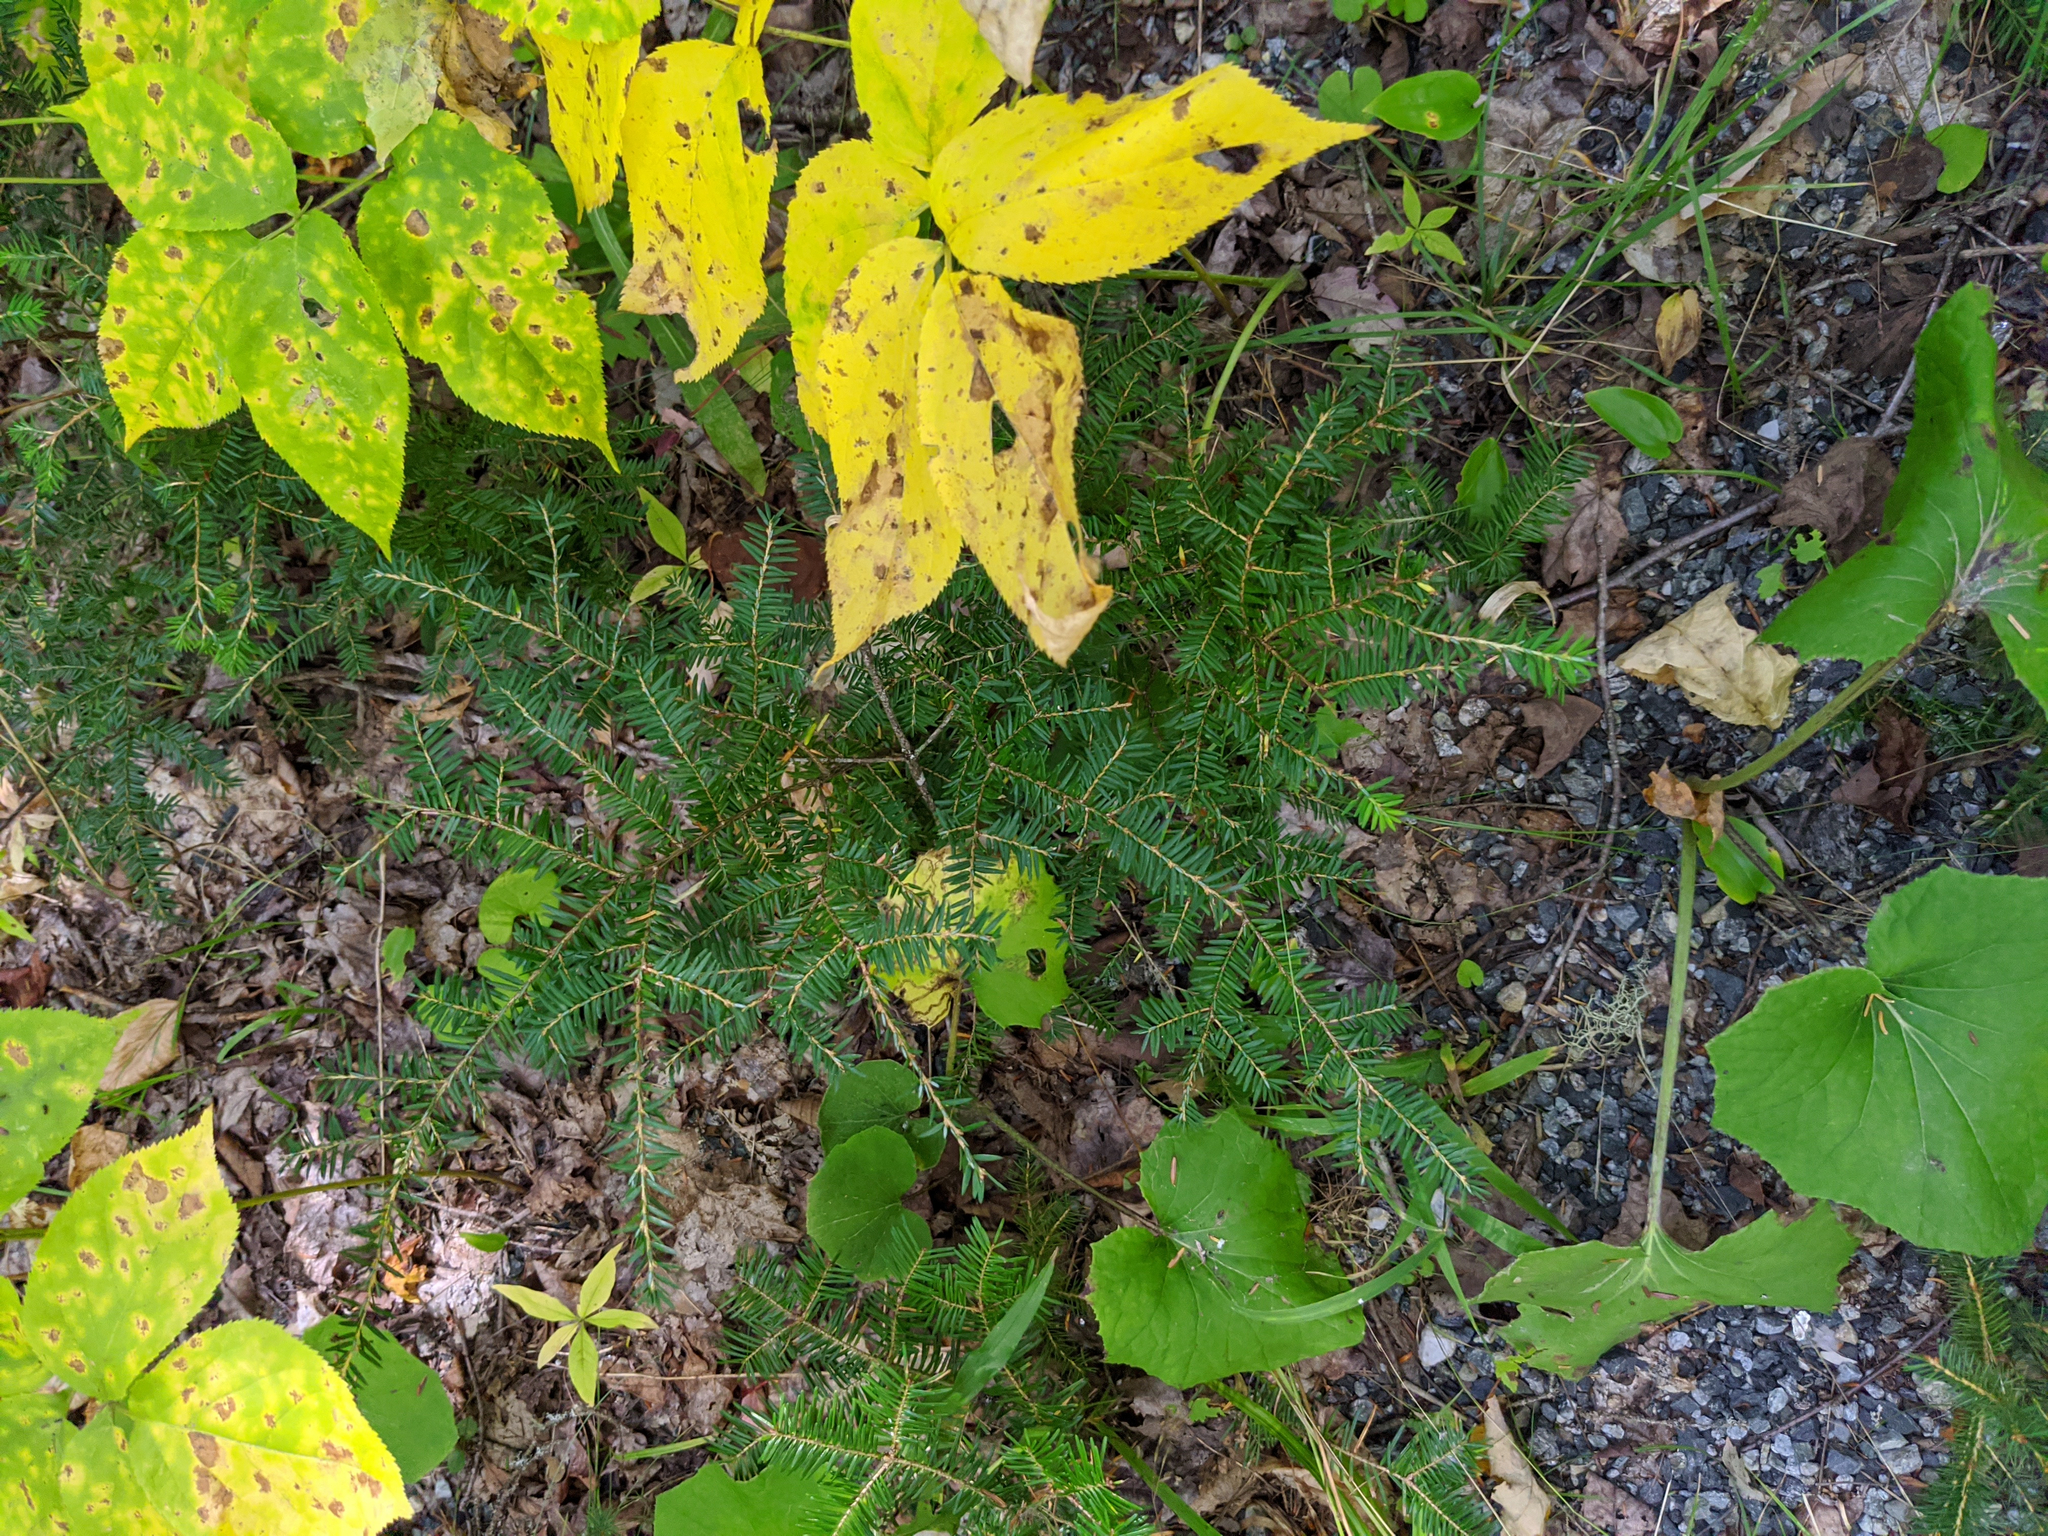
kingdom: Plantae
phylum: Tracheophyta
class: Pinopsida
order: Pinales
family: Pinaceae
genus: Tsuga
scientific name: Tsuga canadensis
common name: Eastern hemlock
